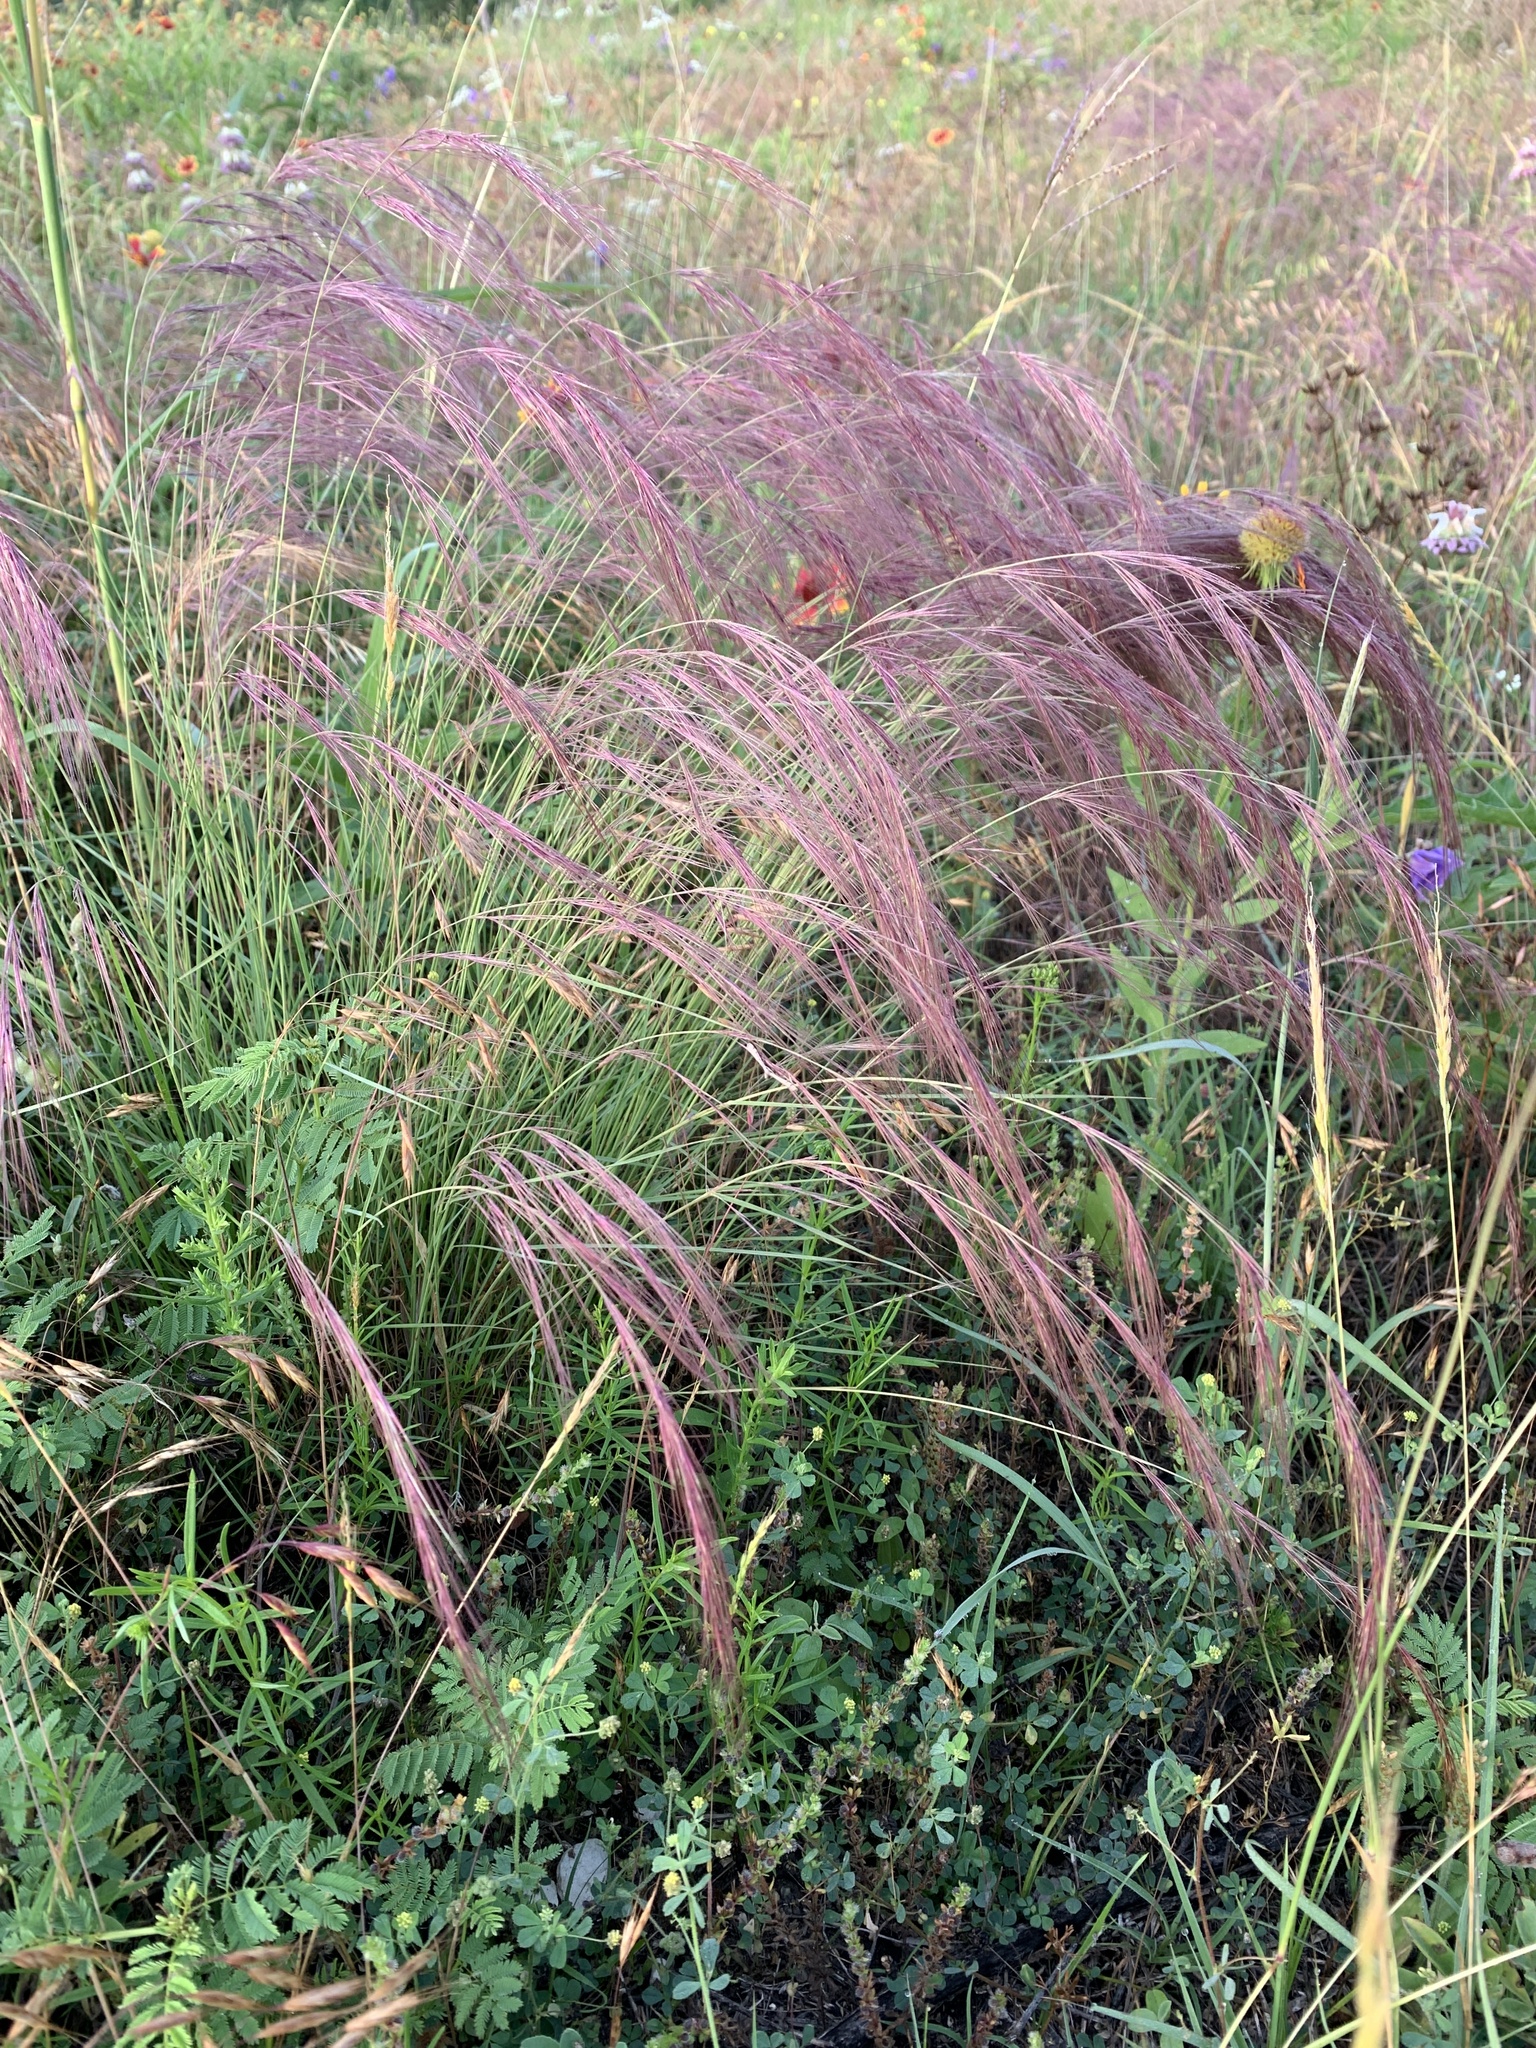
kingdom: Plantae
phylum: Tracheophyta
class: Liliopsida
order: Poales
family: Poaceae
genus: Aristida
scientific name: Aristida purpurea
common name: Purple threeawn
